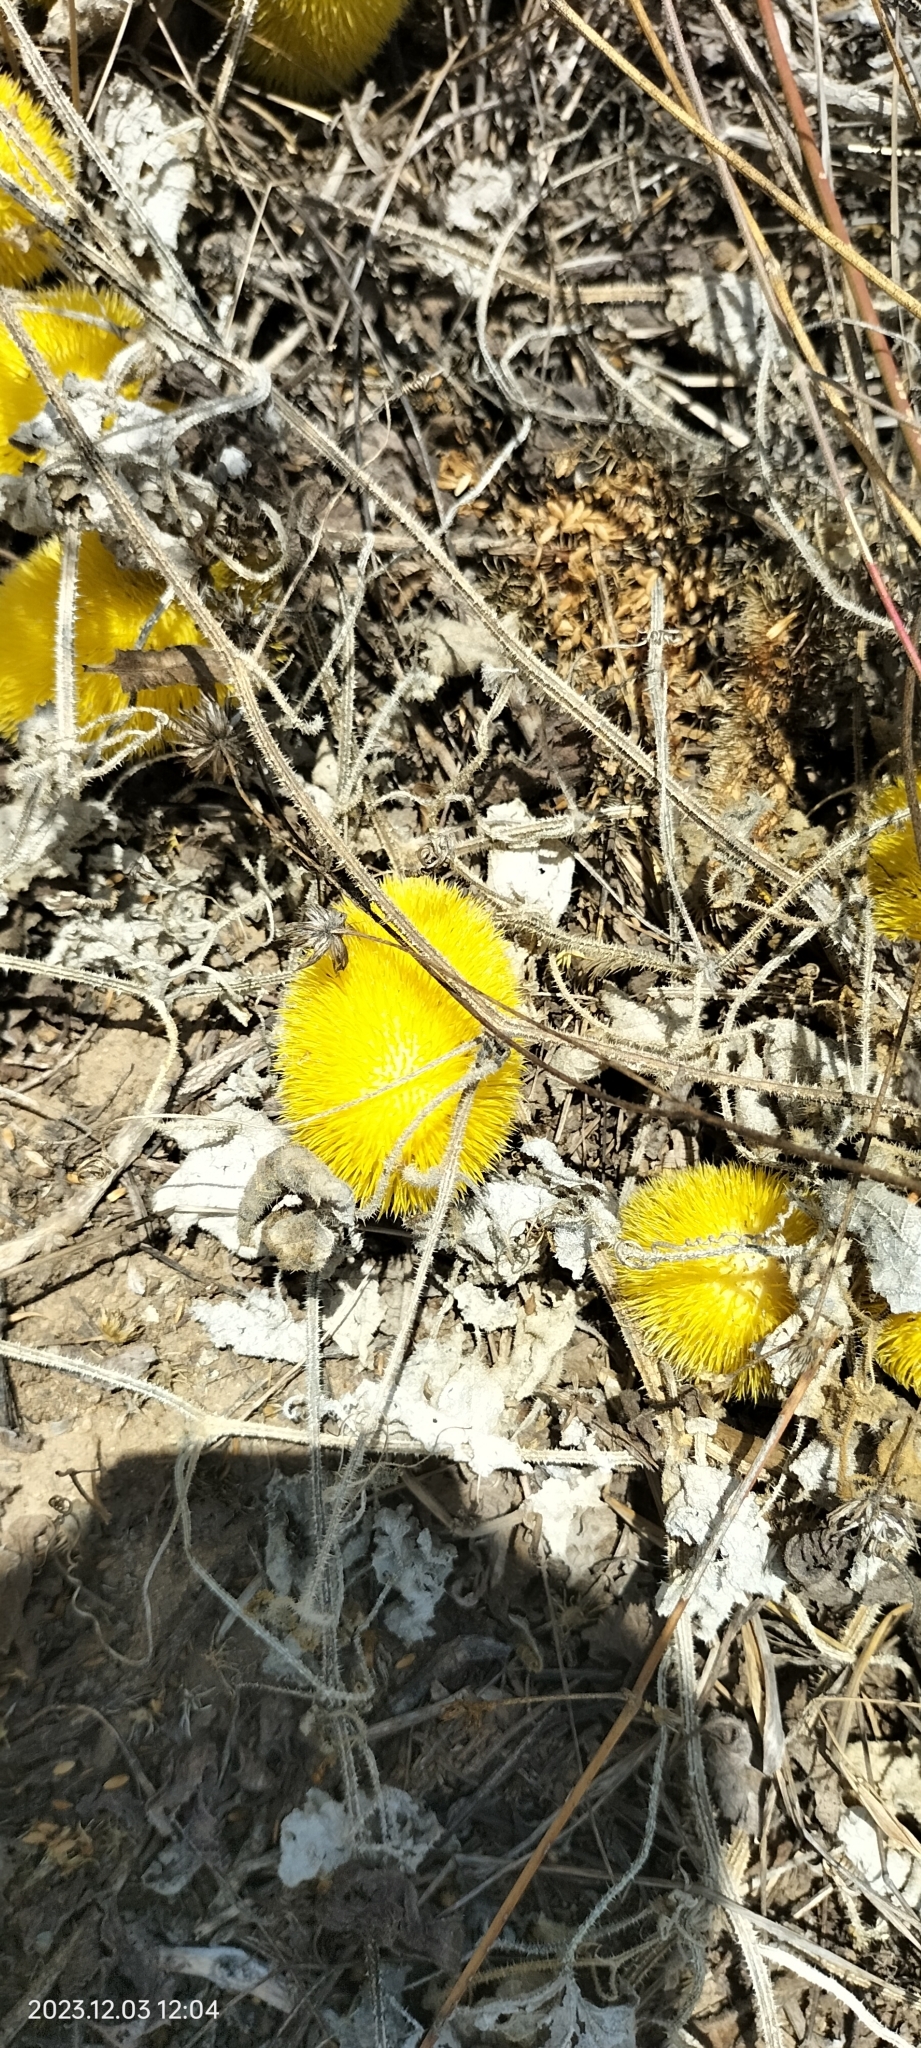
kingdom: Plantae
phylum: Tracheophyta
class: Magnoliopsida
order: Cucurbitales
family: Cucurbitaceae
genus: Cucumis
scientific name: Cucumis dipsaceus
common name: Hedgehog gourd
